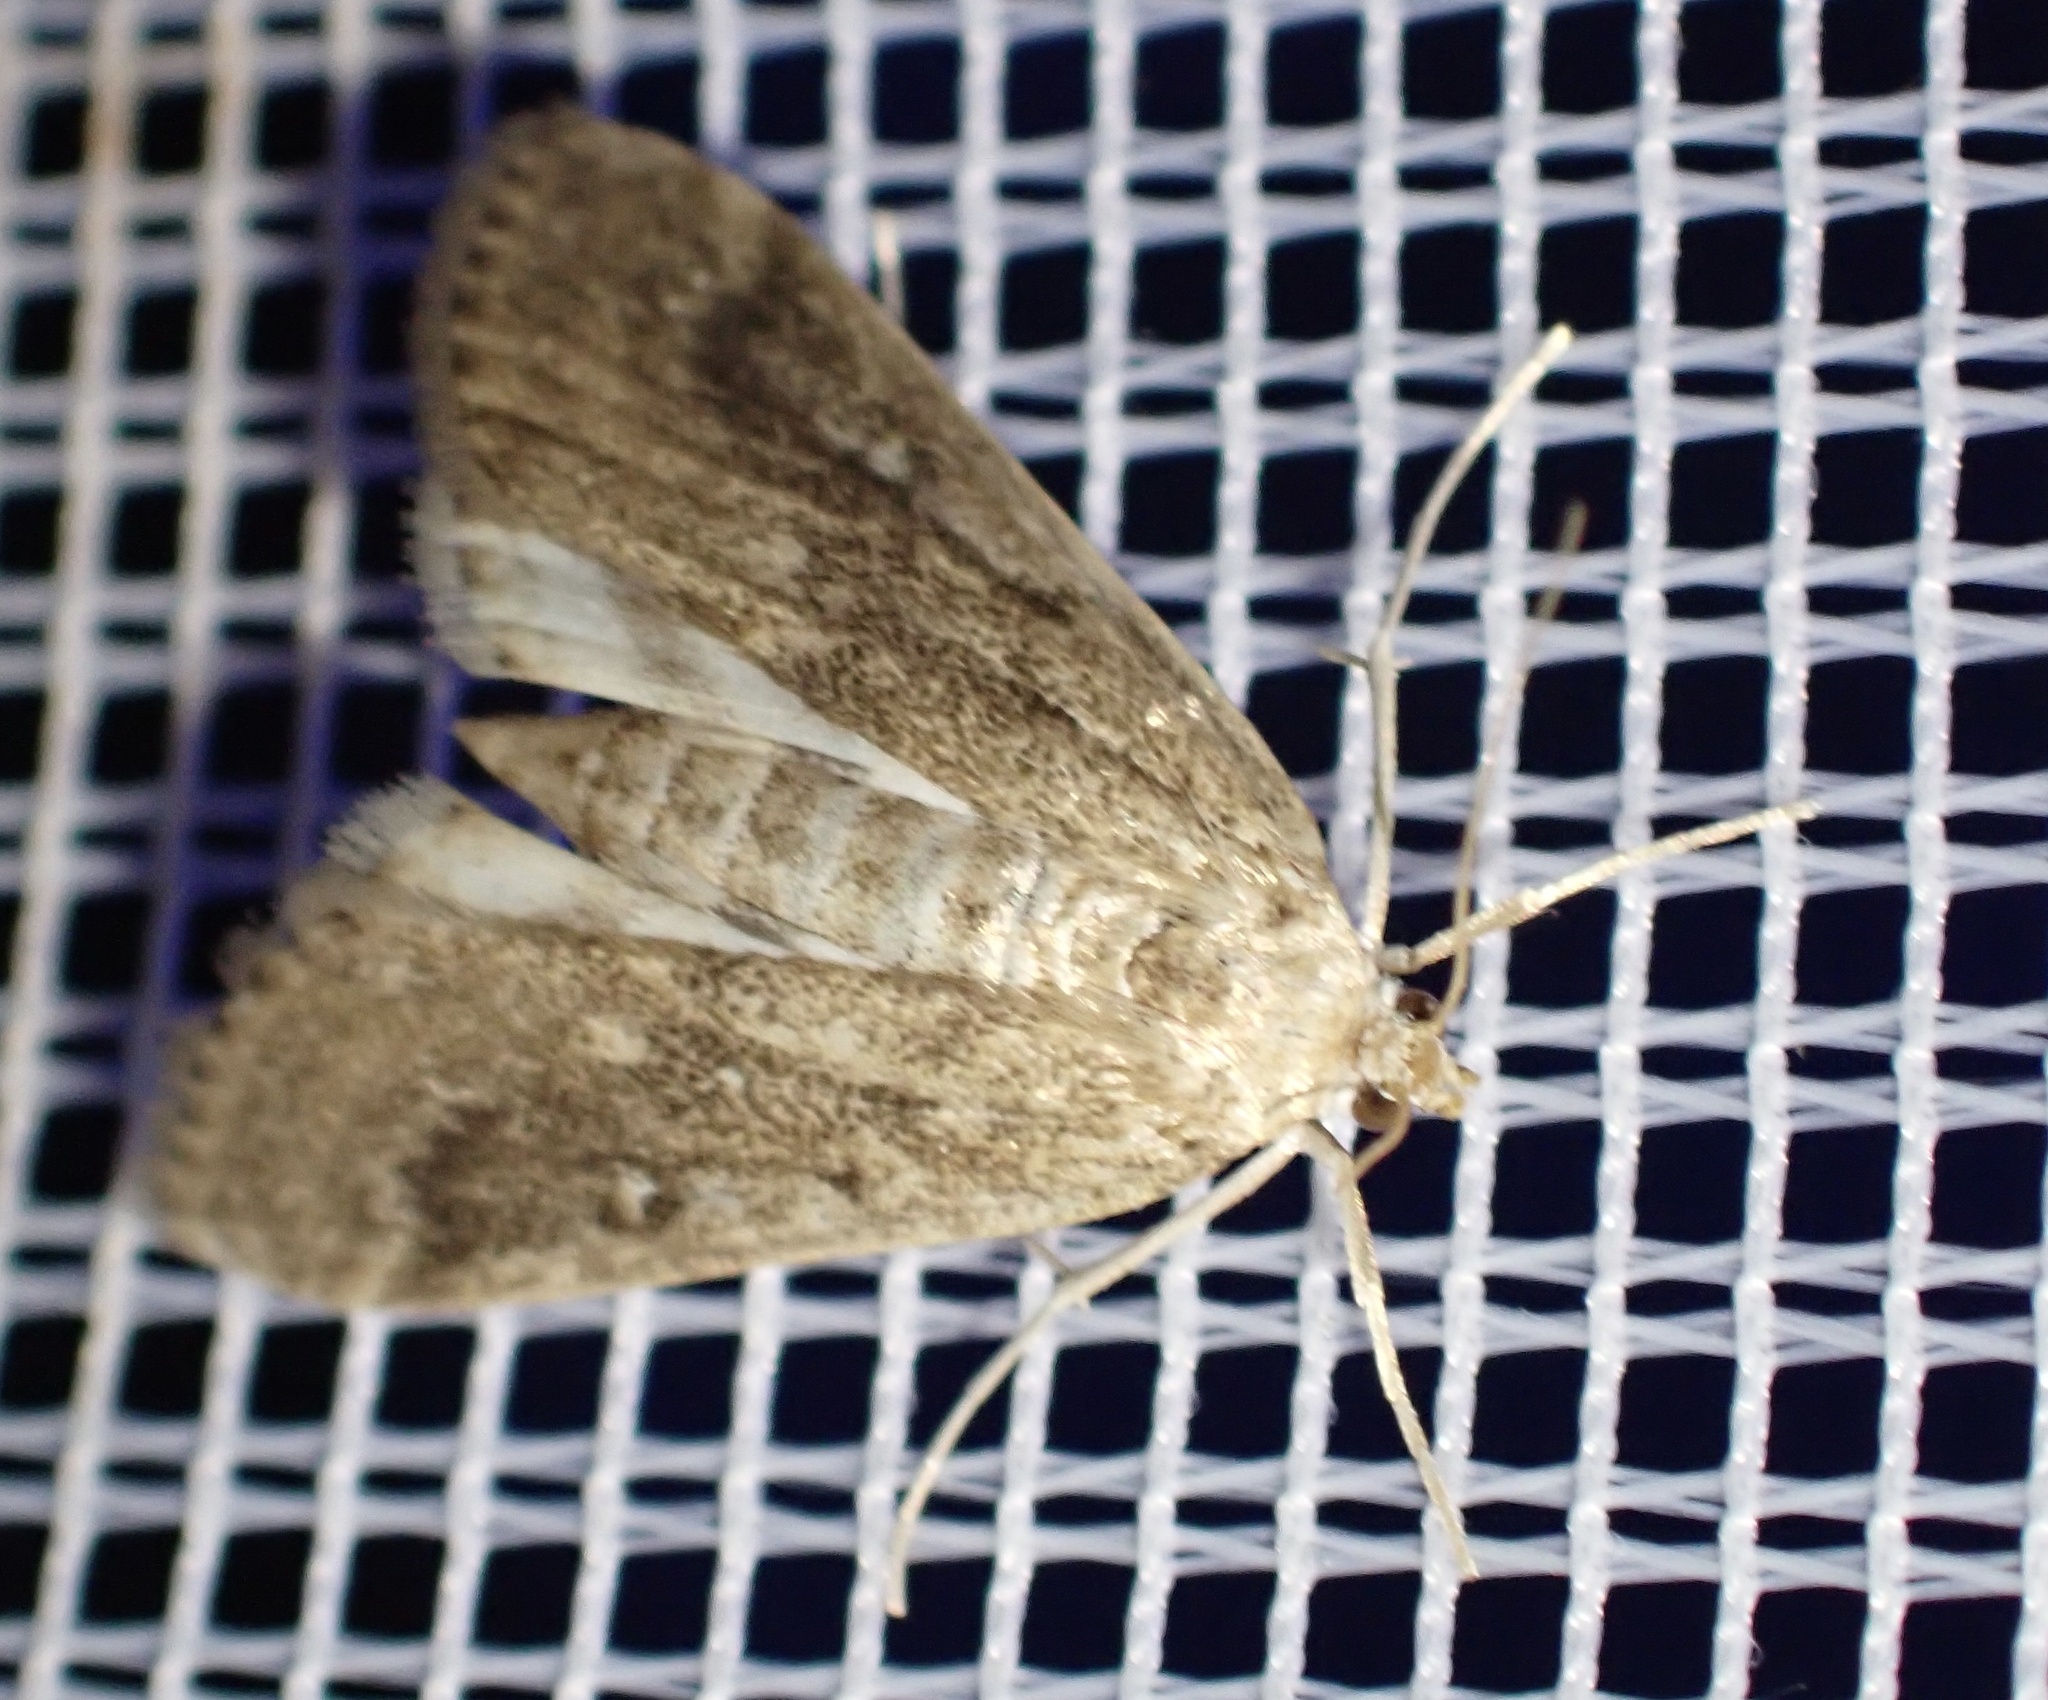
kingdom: Animalia
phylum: Arthropoda
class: Insecta
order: Lepidoptera
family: Crambidae
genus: Parapoynx
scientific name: Parapoynx stratiotata
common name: Ringed china-mark
